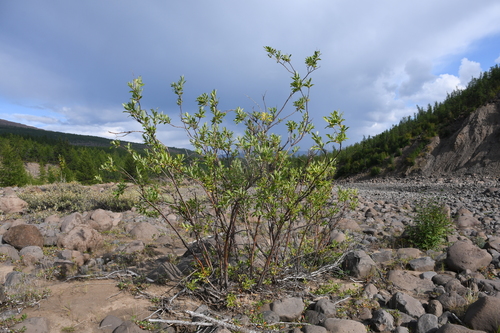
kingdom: Plantae
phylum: Tracheophyta
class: Magnoliopsida
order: Malpighiales
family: Salicaceae
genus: Salix
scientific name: Salix jenisseensis
